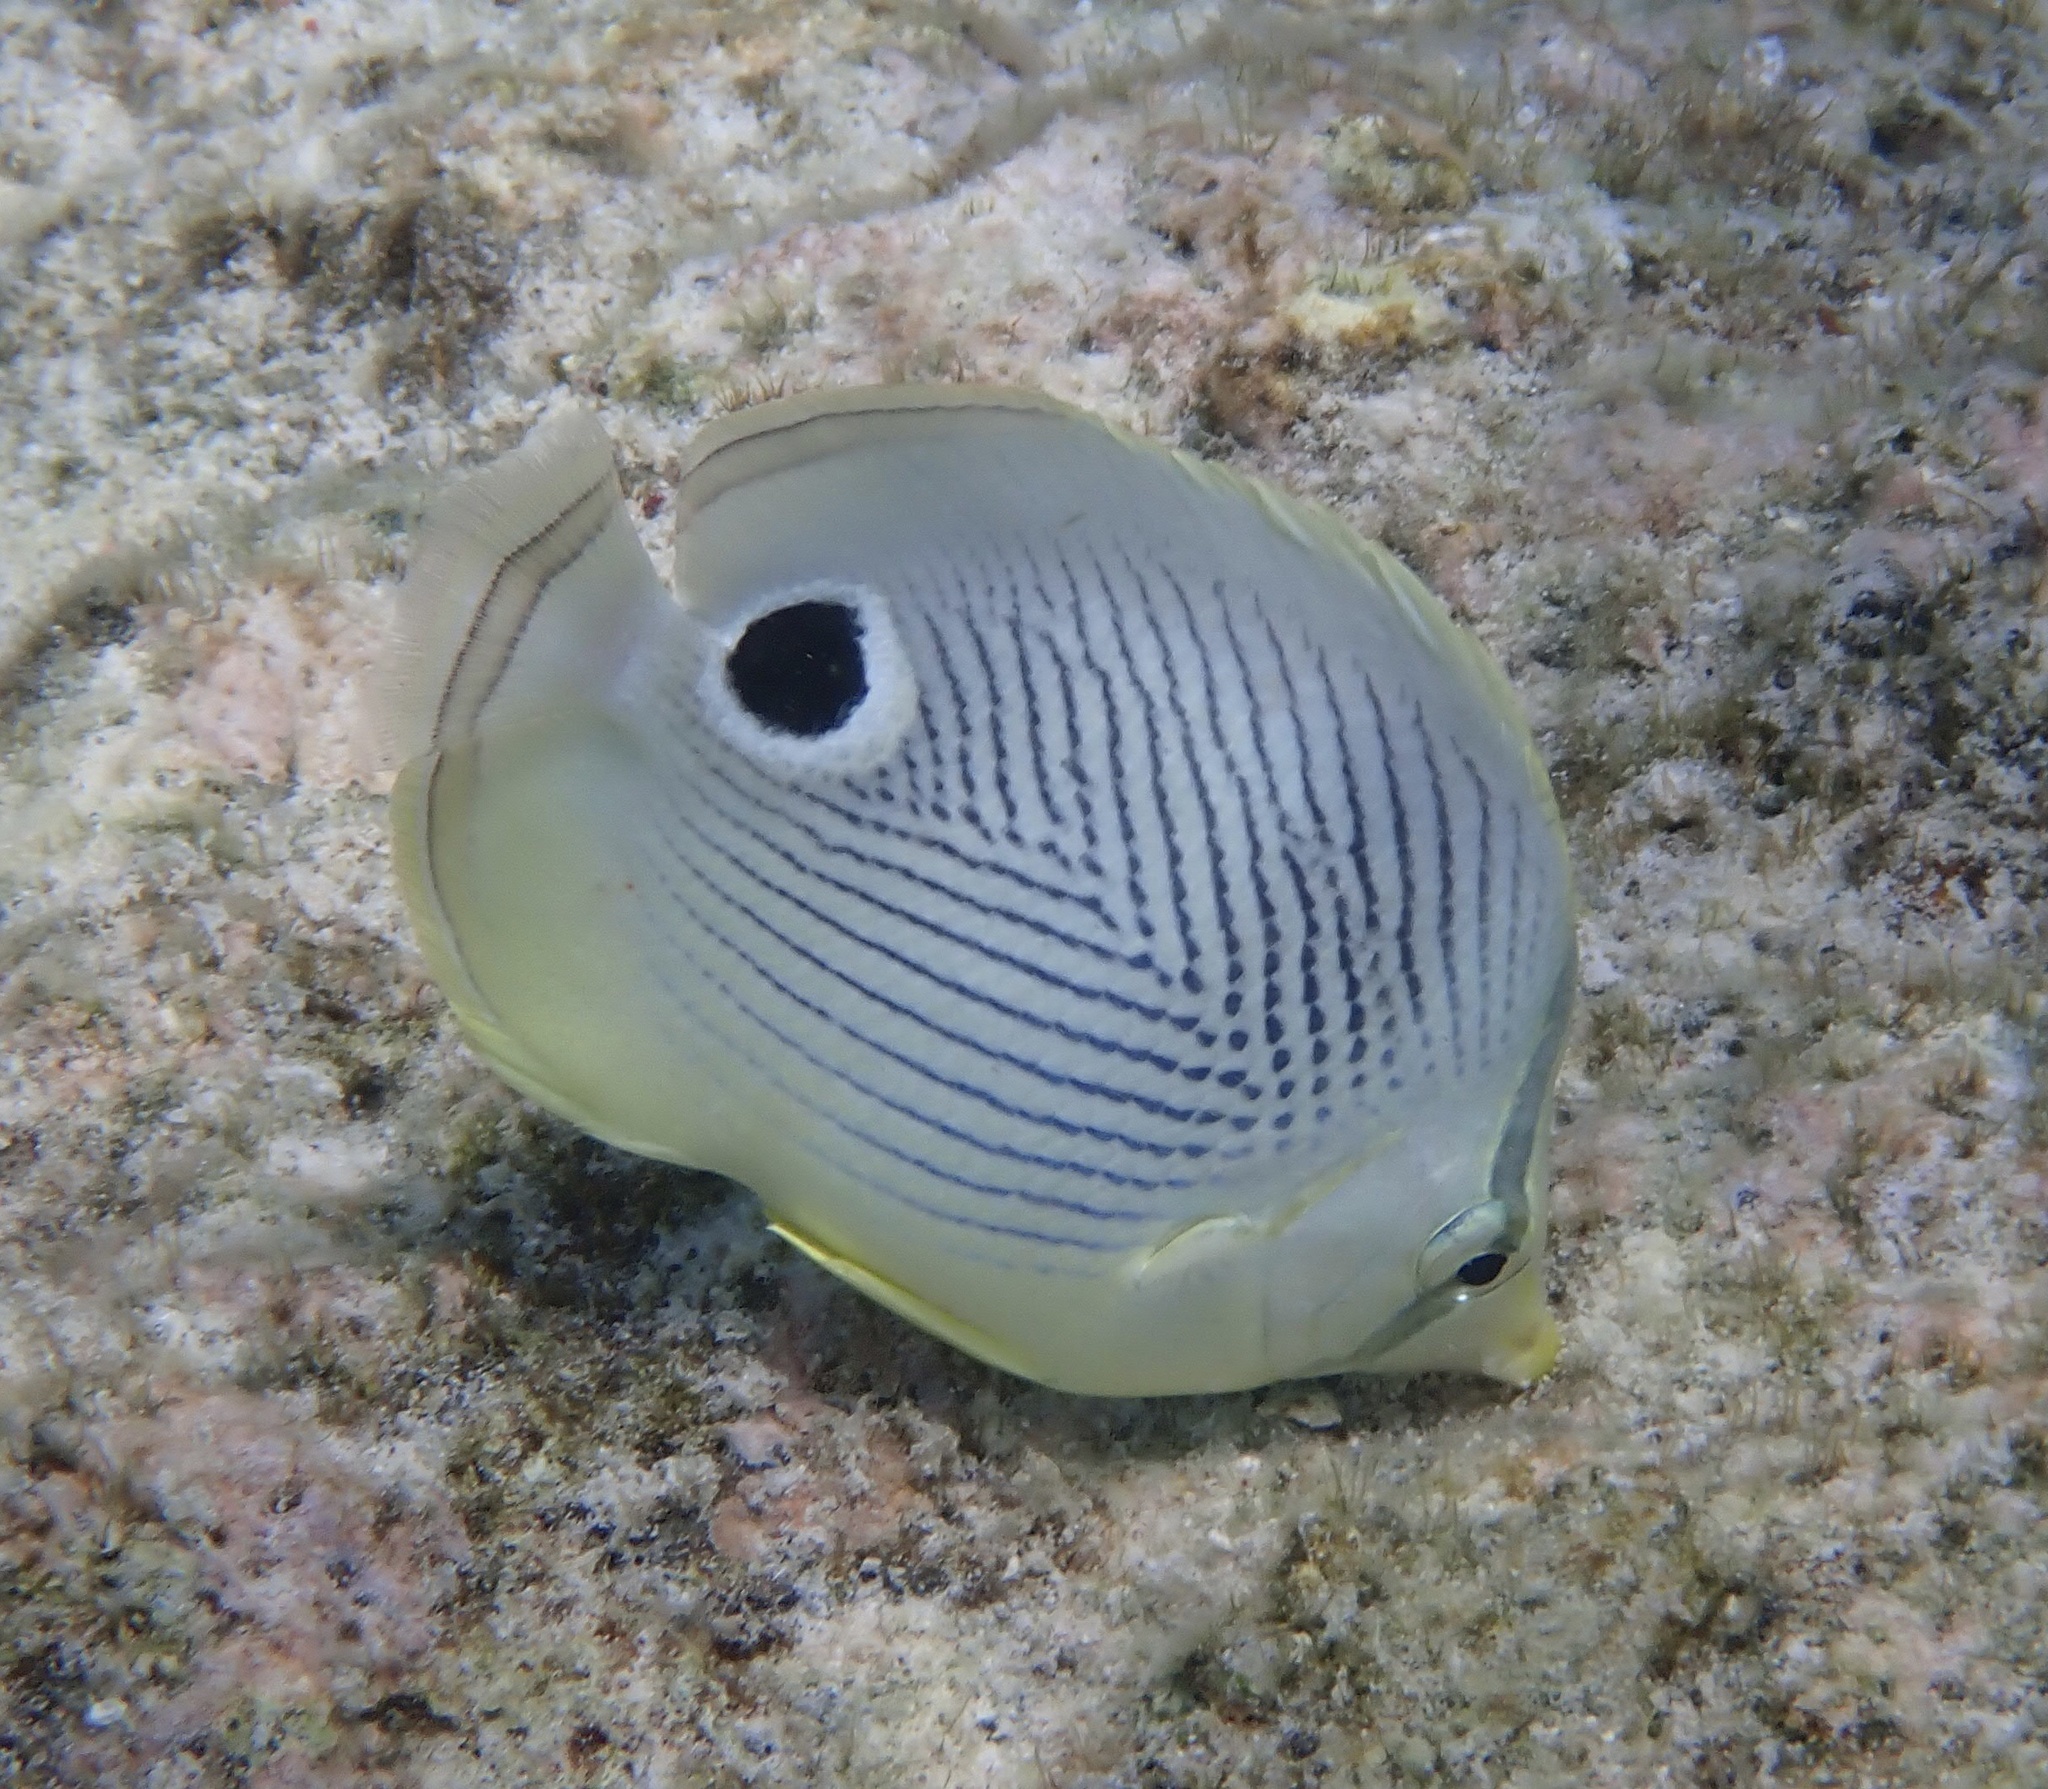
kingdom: Animalia
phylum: Chordata
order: Perciformes
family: Chaetodontidae
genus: Chaetodon
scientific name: Chaetodon capistratus
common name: Kete
